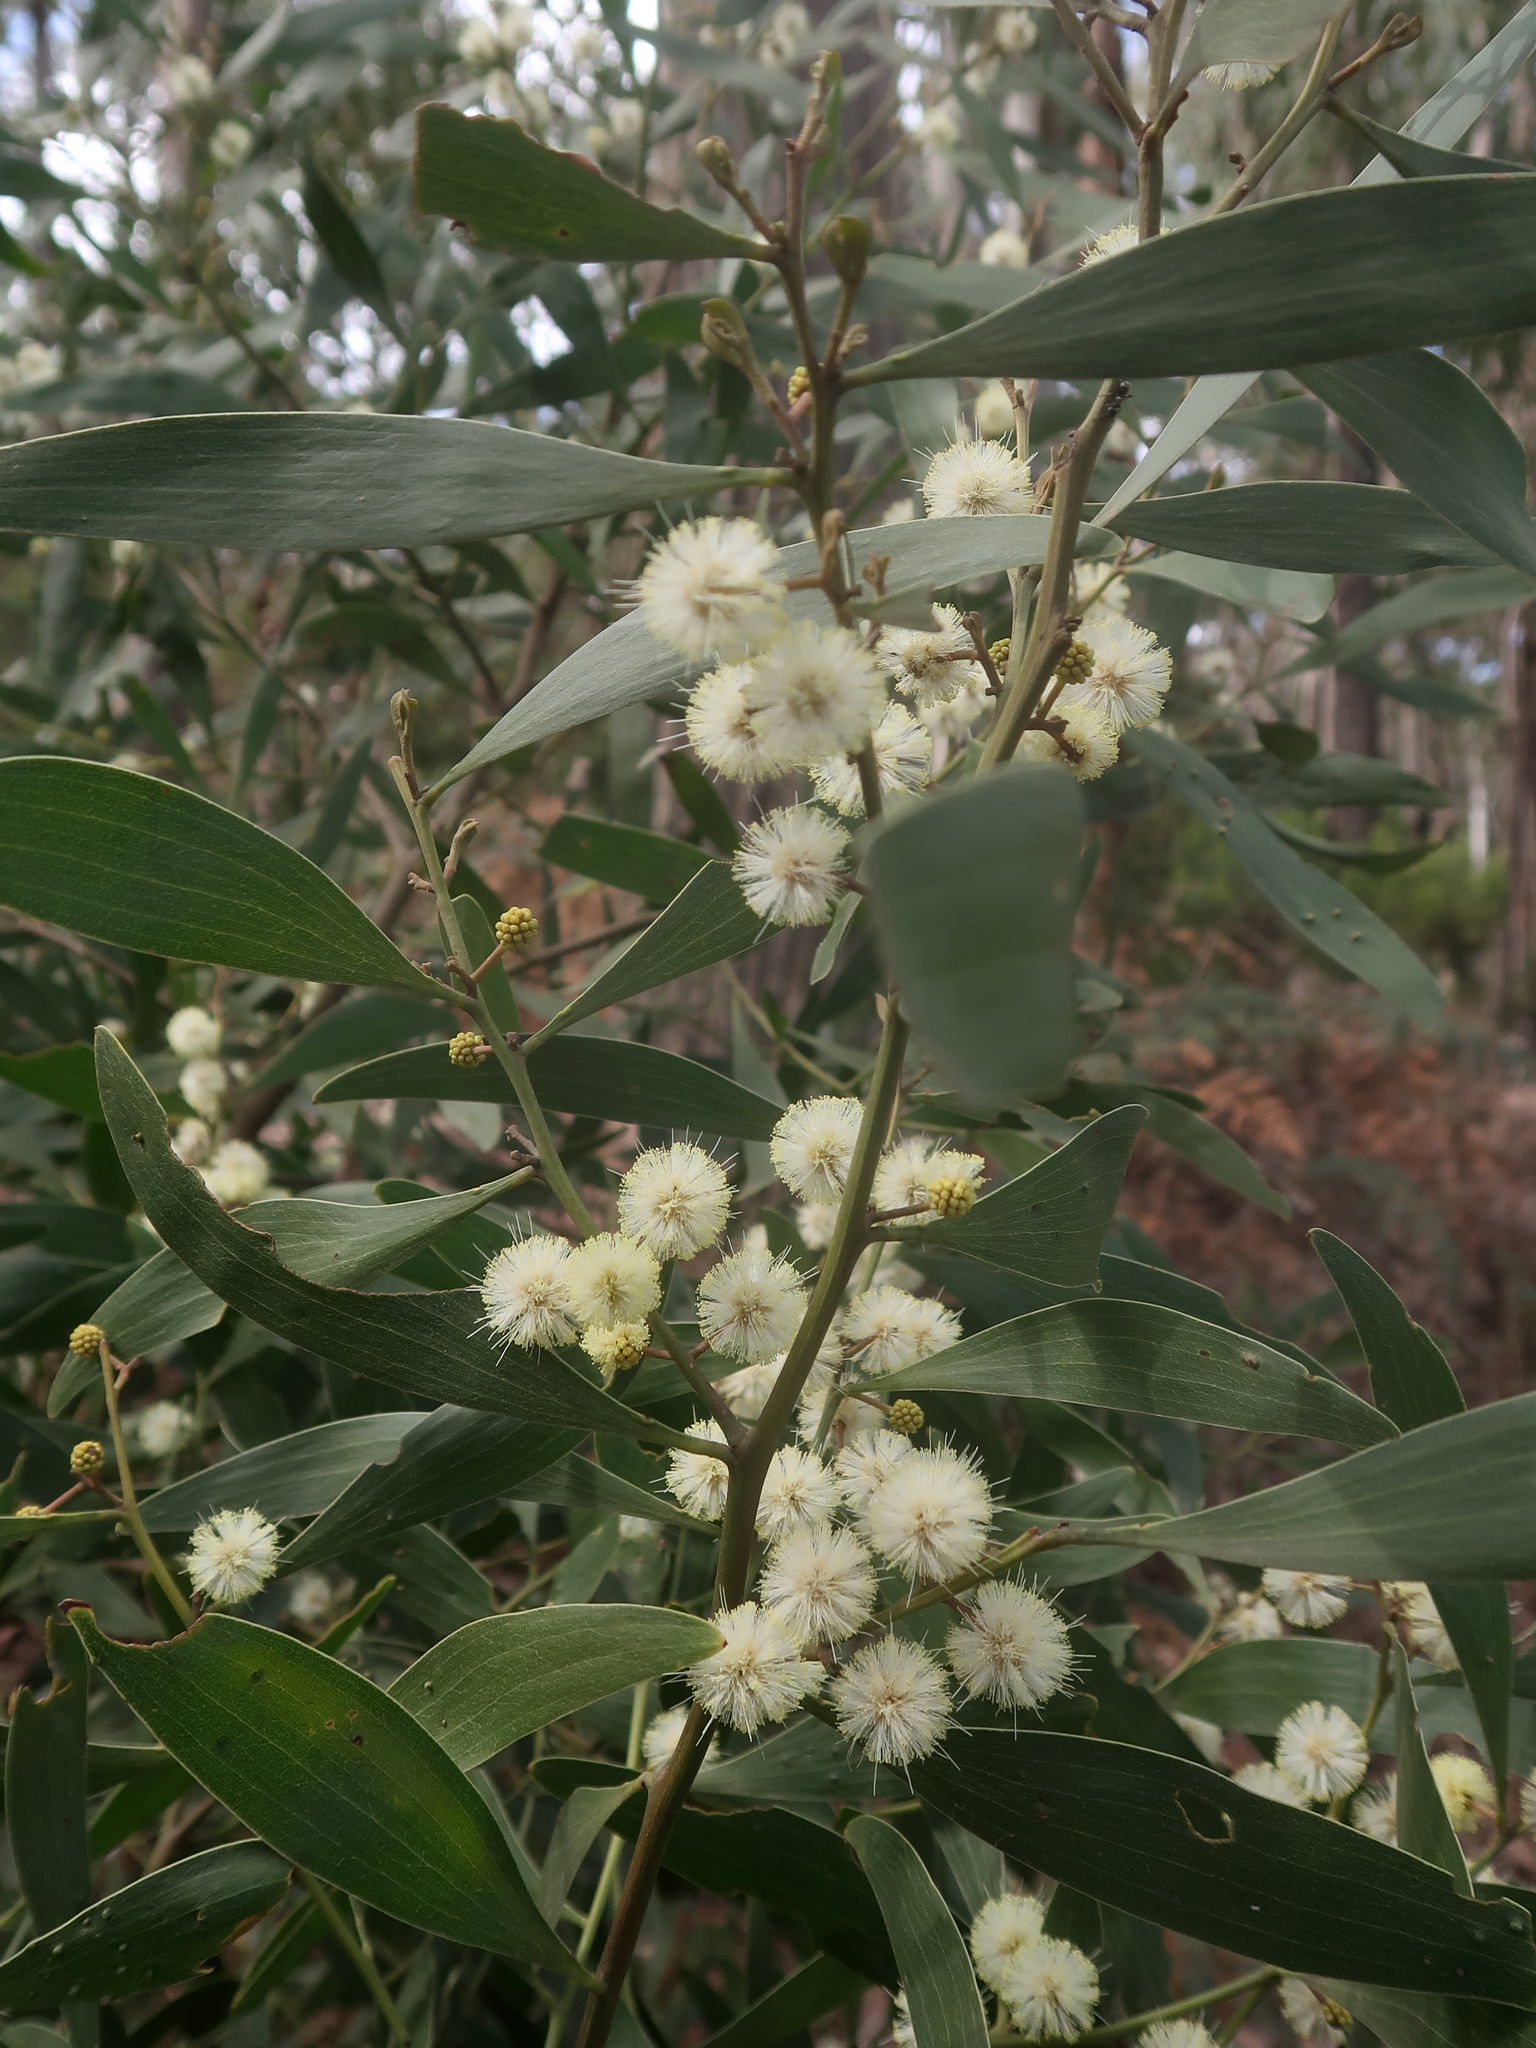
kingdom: Plantae
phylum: Tracheophyta
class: Magnoliopsida
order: Fabales
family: Fabaceae
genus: Acacia
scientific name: Acacia melanoxylon
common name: Blackwood
